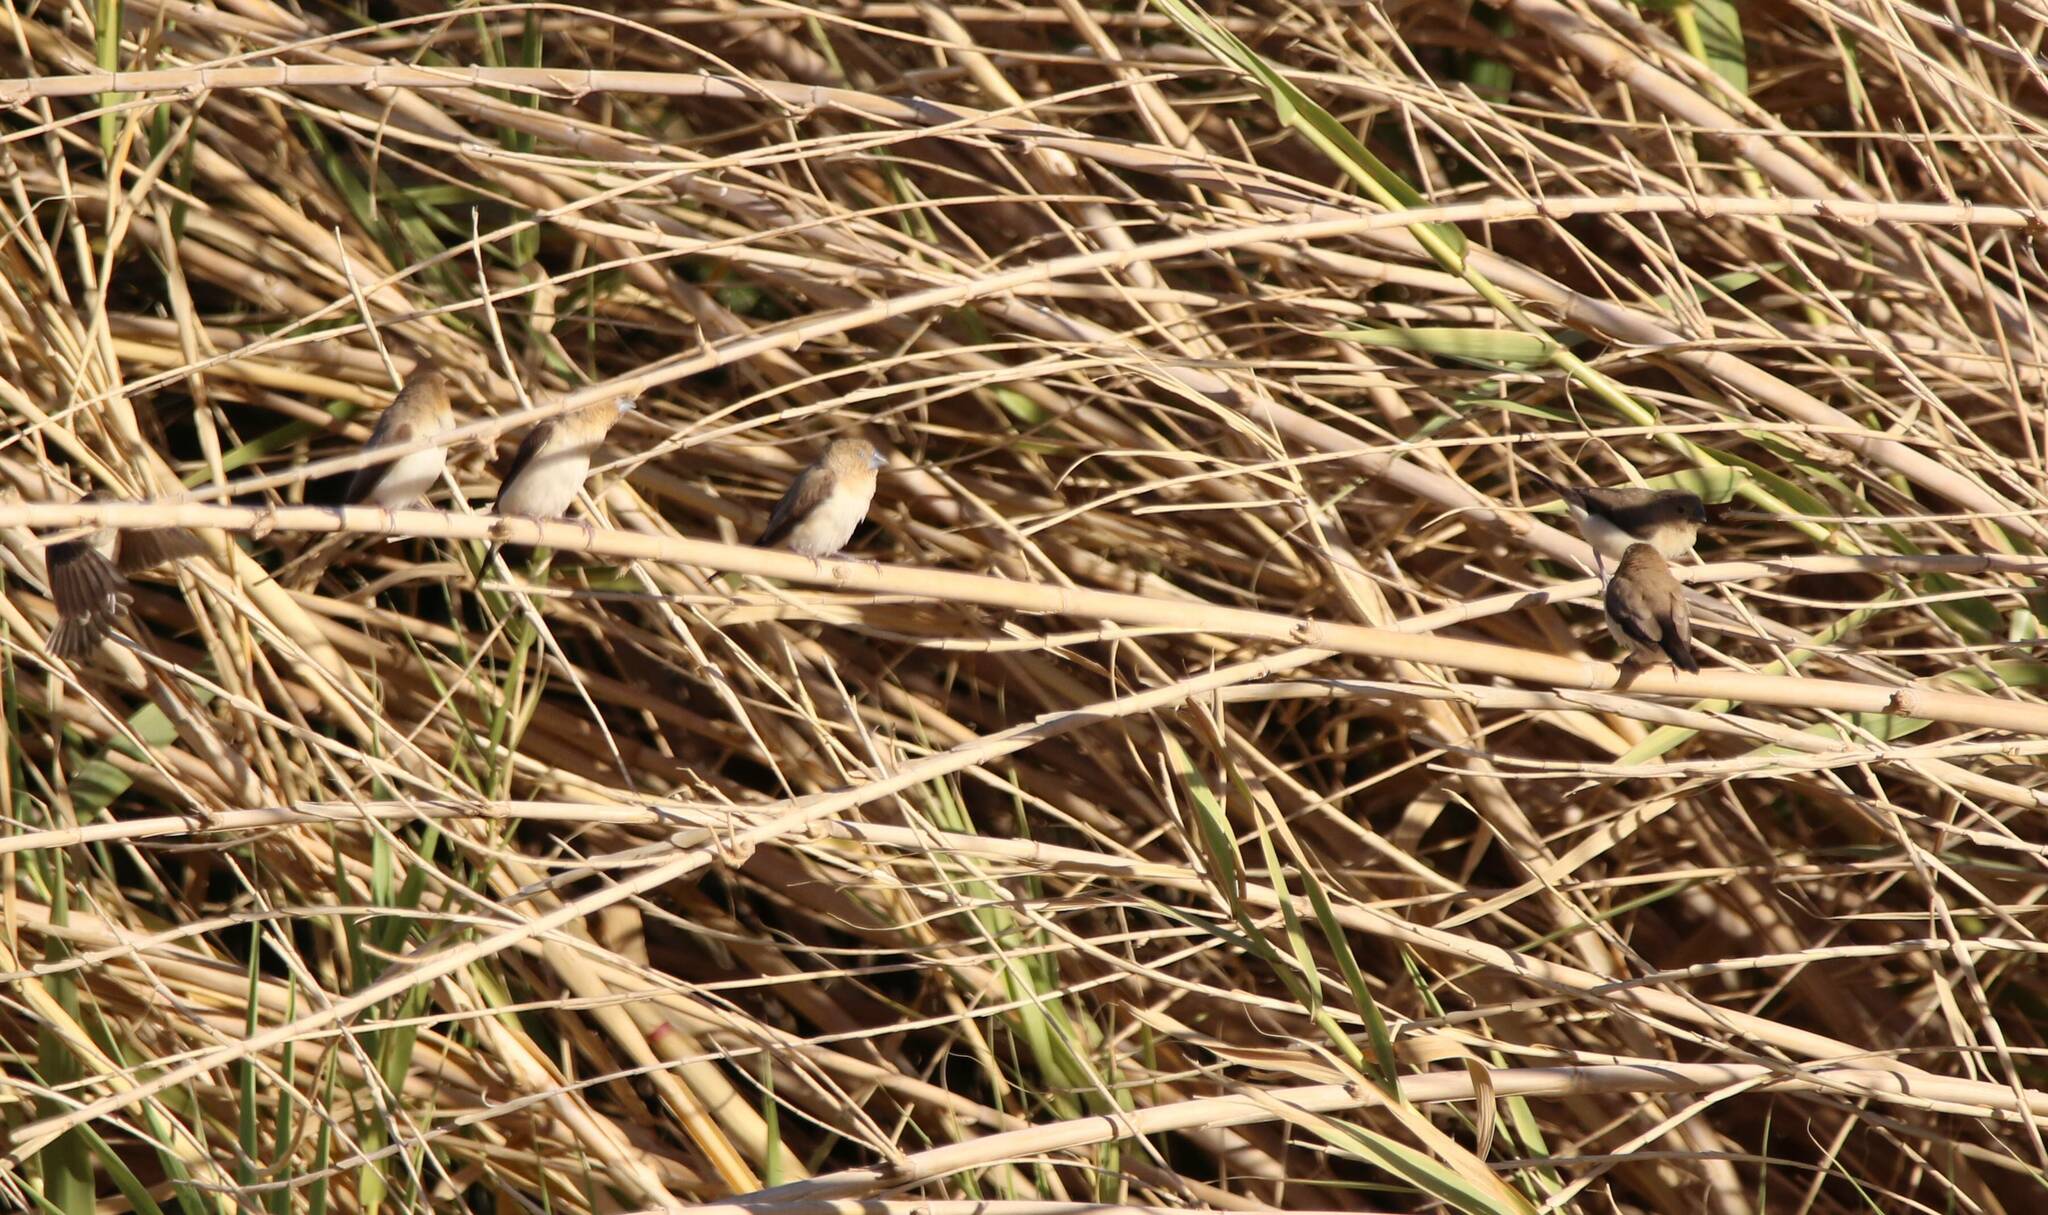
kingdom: Animalia
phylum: Chordata
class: Aves
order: Passeriformes
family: Estrildidae
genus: Euodice
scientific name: Euodice cantans
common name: African silverbill
